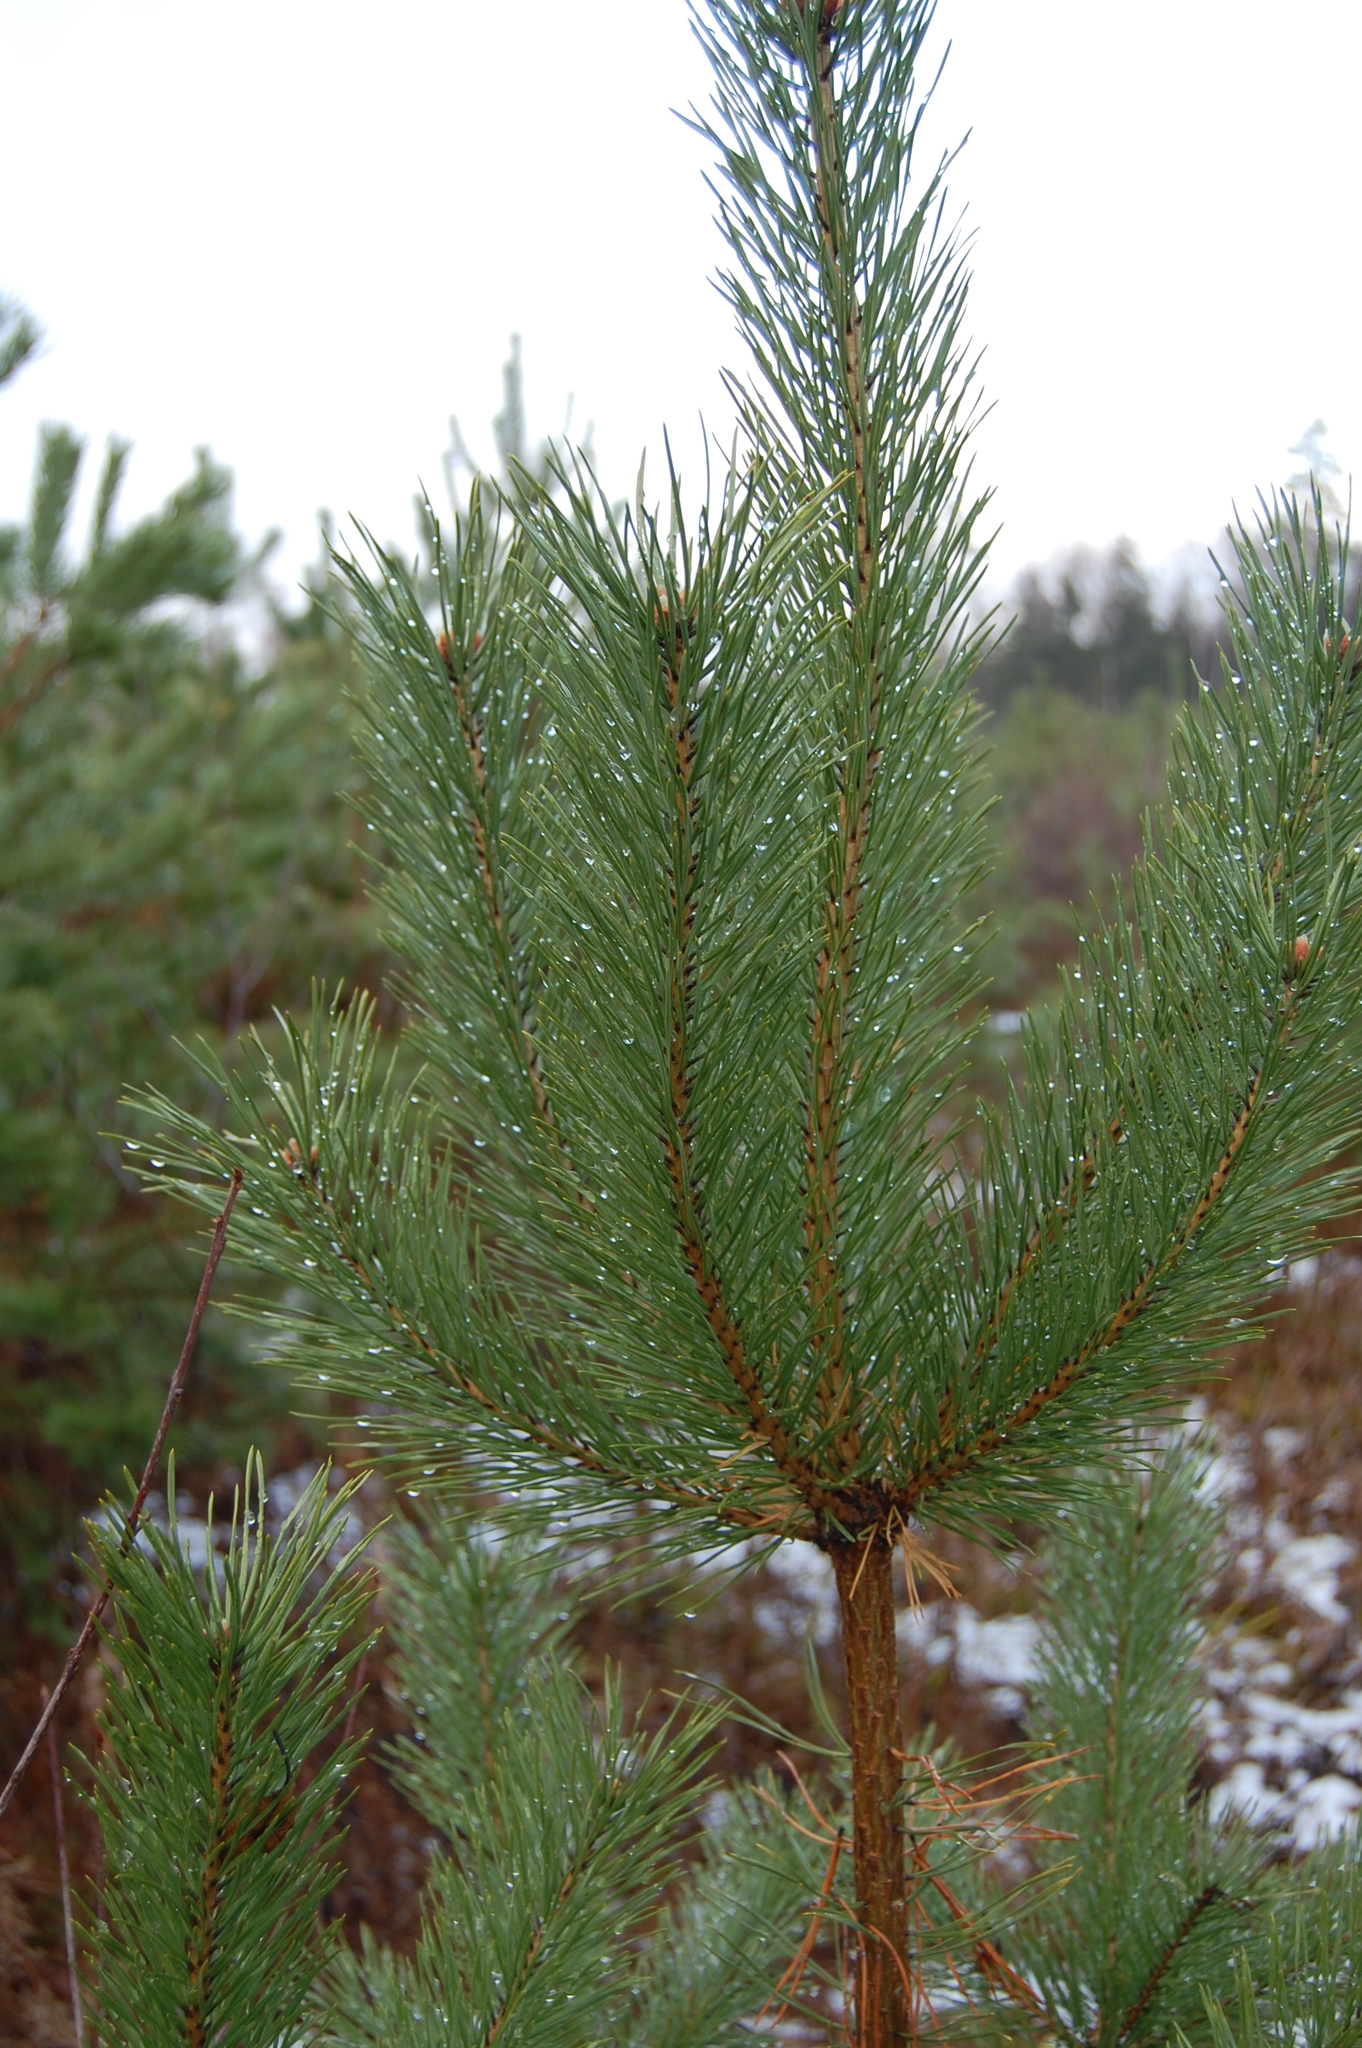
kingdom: Plantae
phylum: Tracheophyta
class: Pinopsida
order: Pinales
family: Pinaceae
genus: Pinus
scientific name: Pinus sylvestris
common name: Scots pine
